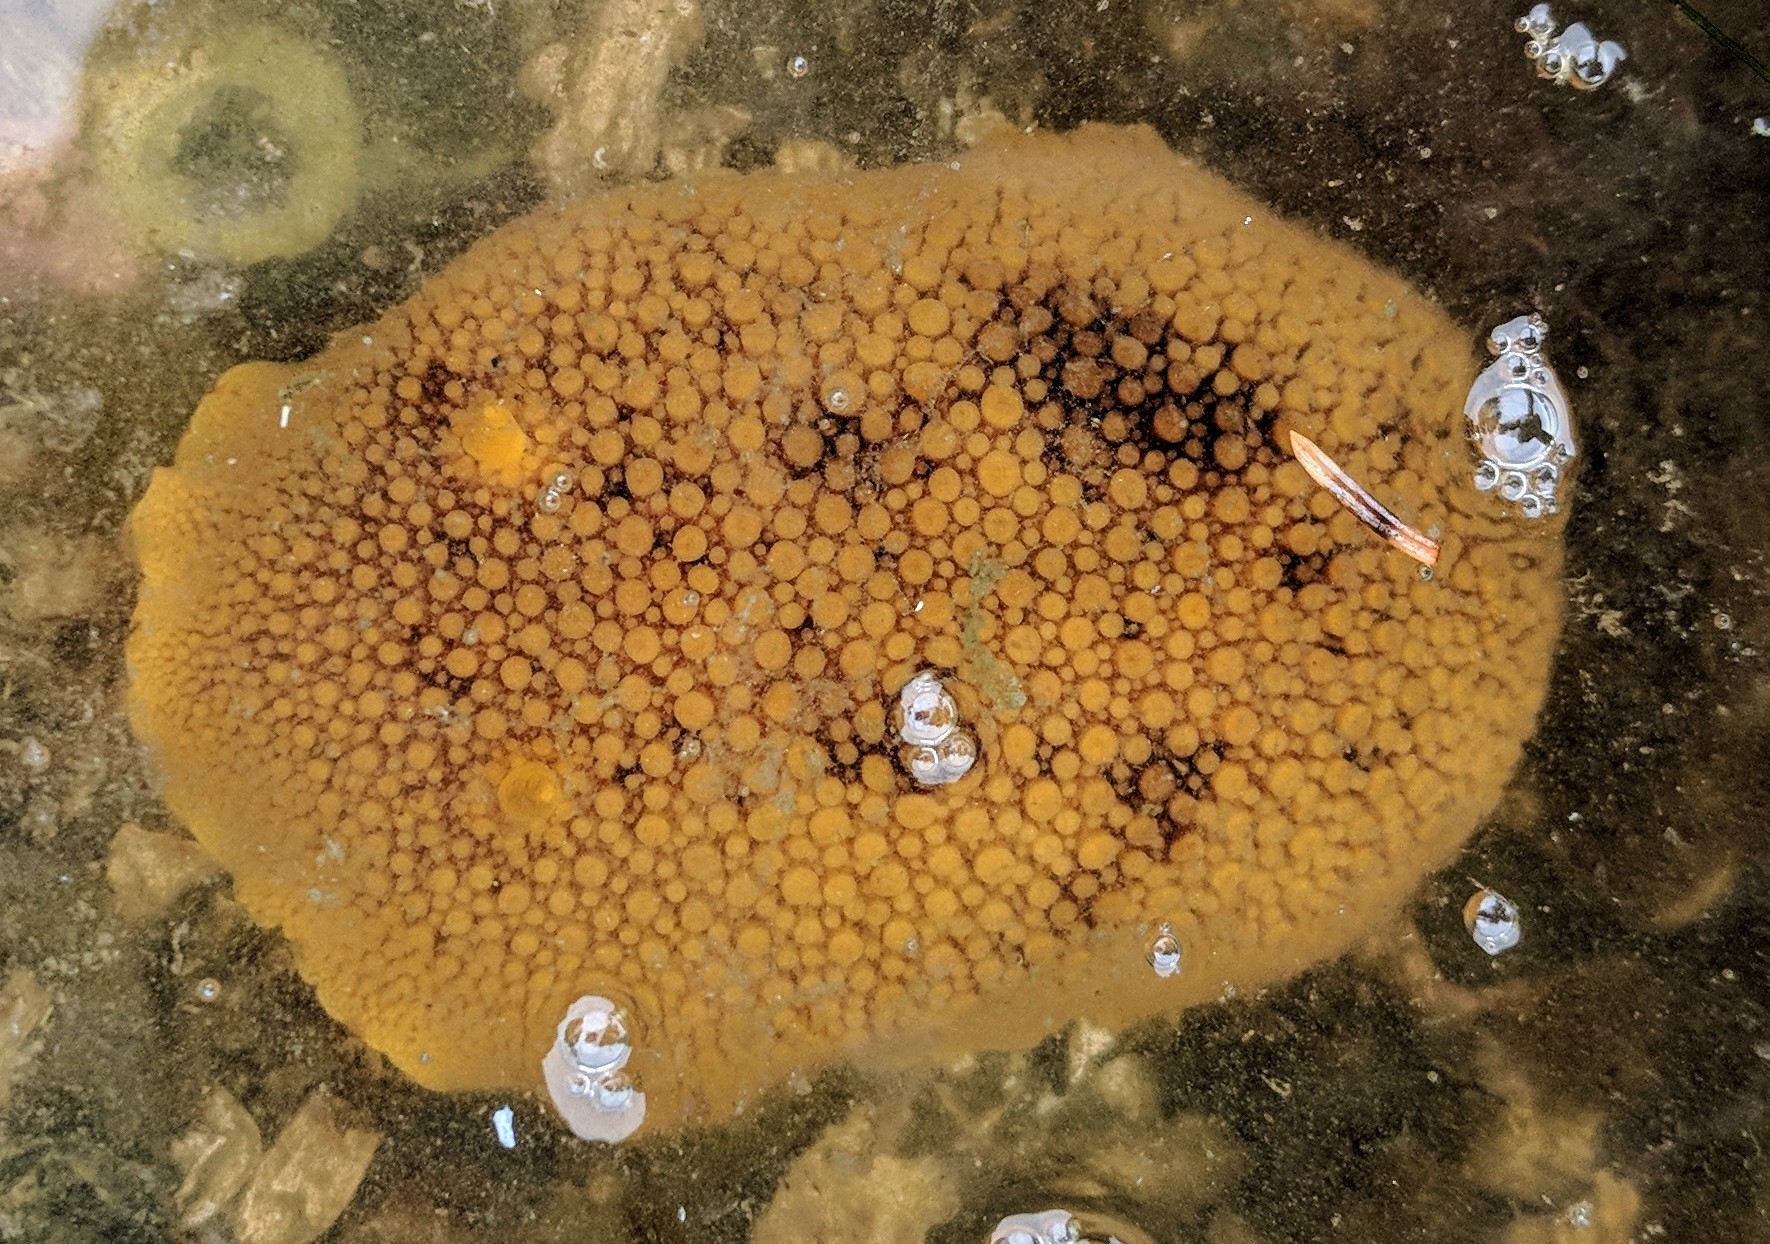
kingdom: Animalia
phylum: Mollusca
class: Gastropoda
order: Nudibranchia
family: Discodorididae
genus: Peltodoris
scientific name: Peltodoris nobilis
